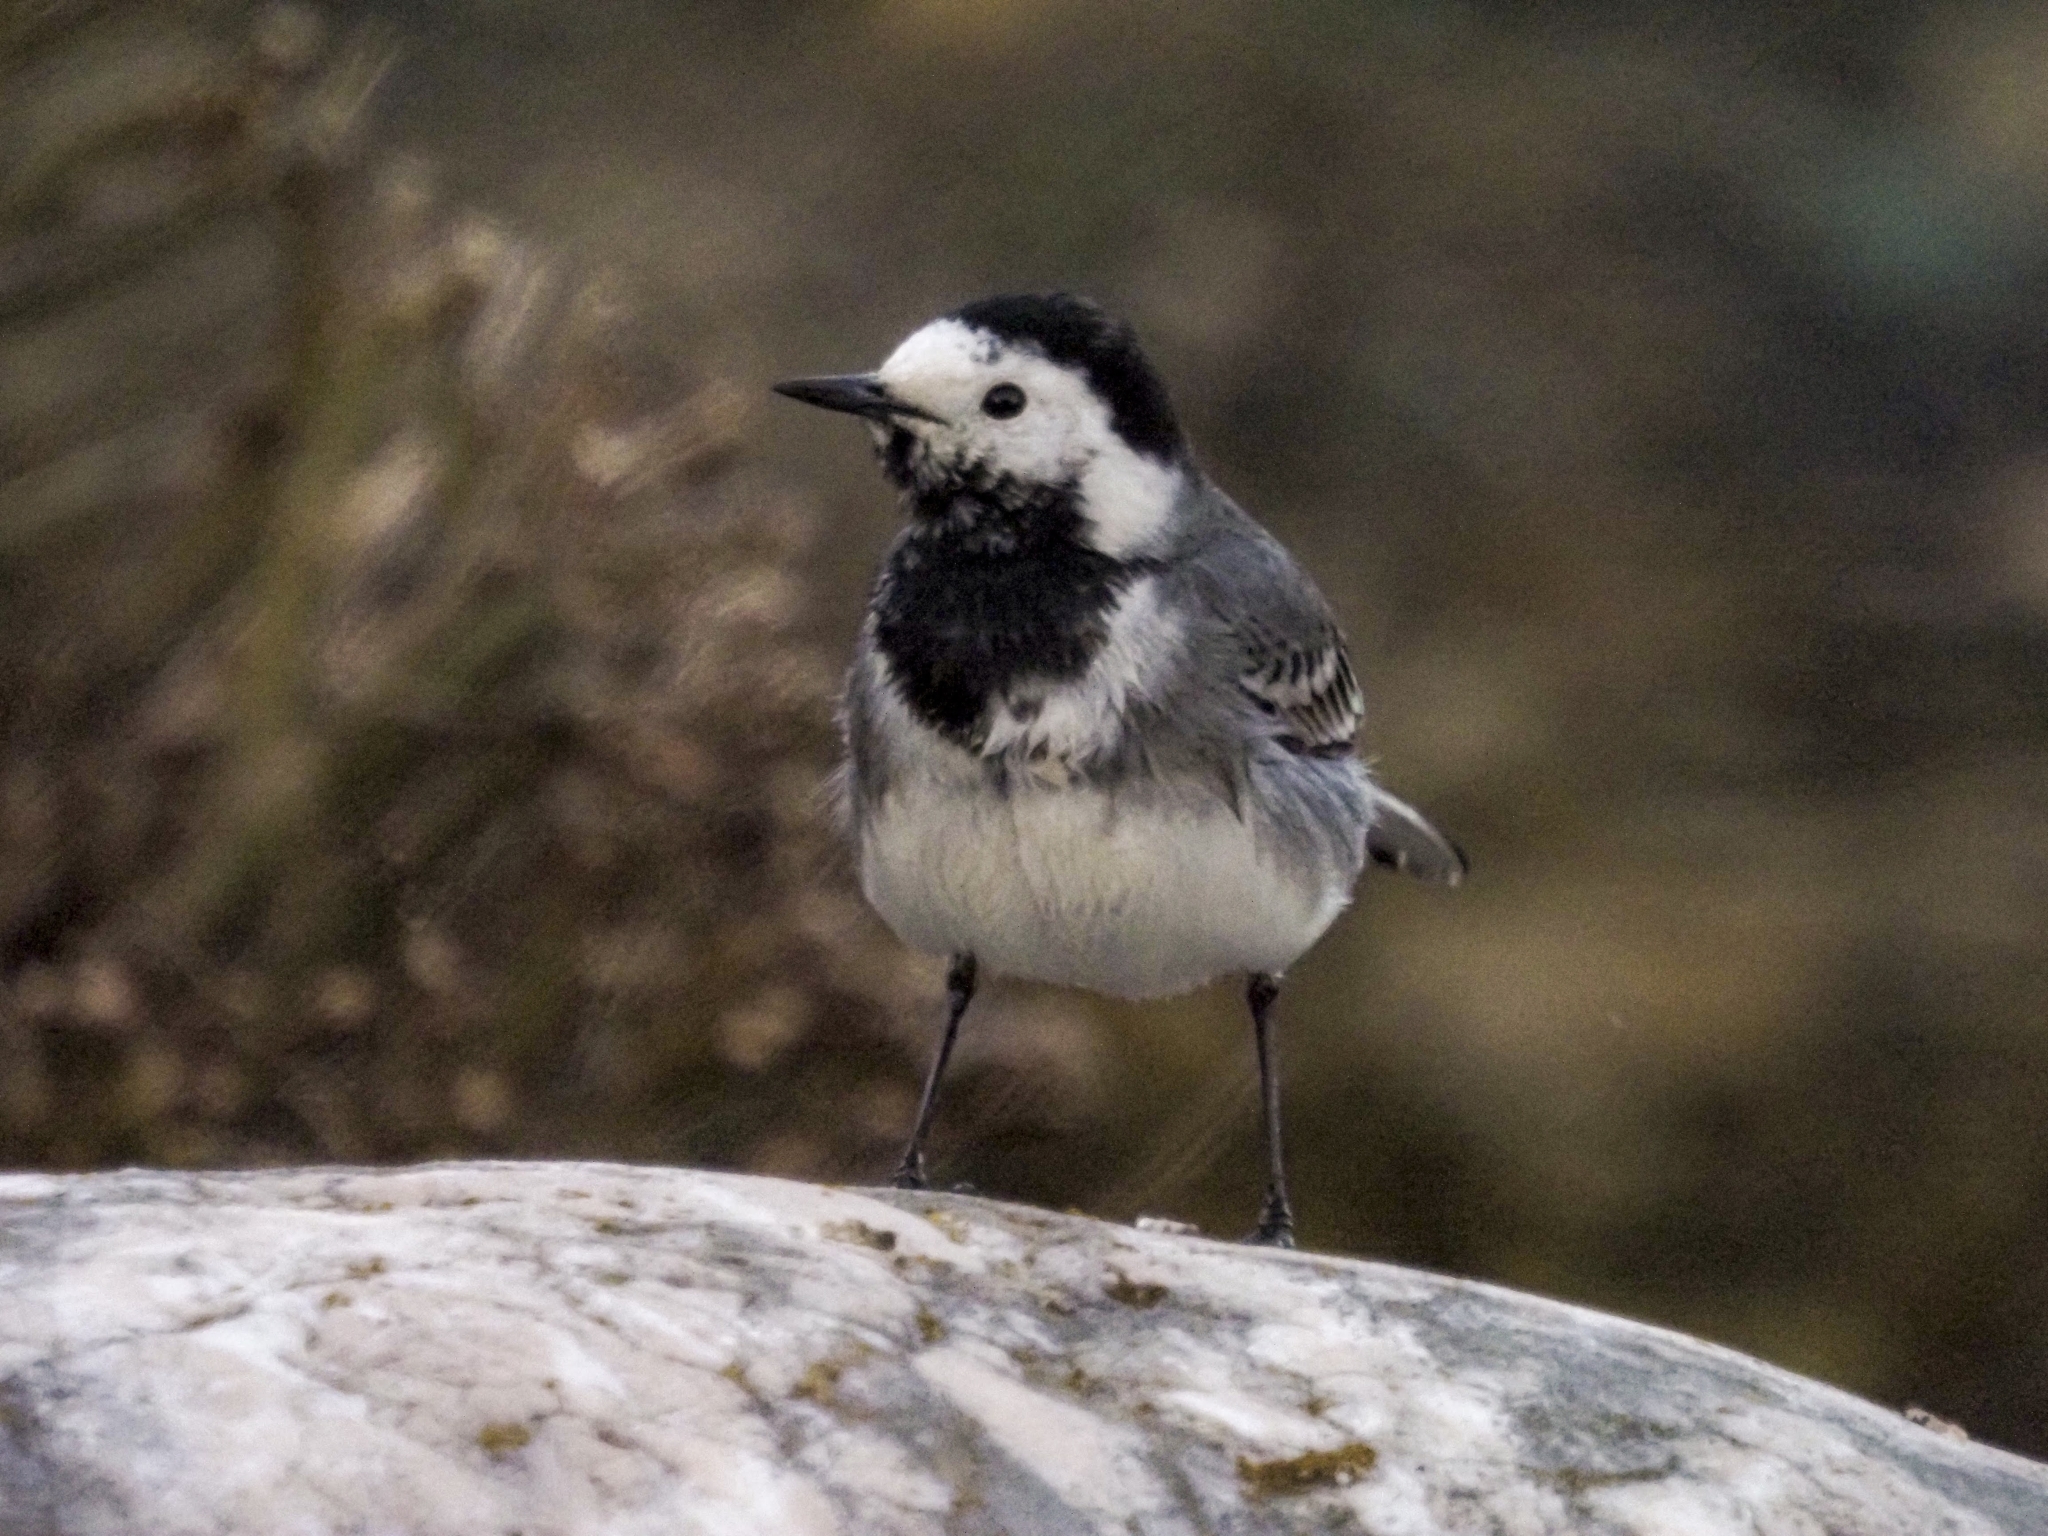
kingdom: Animalia
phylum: Chordata
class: Aves
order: Passeriformes
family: Motacillidae
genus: Motacilla
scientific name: Motacilla alba
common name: White wagtail
